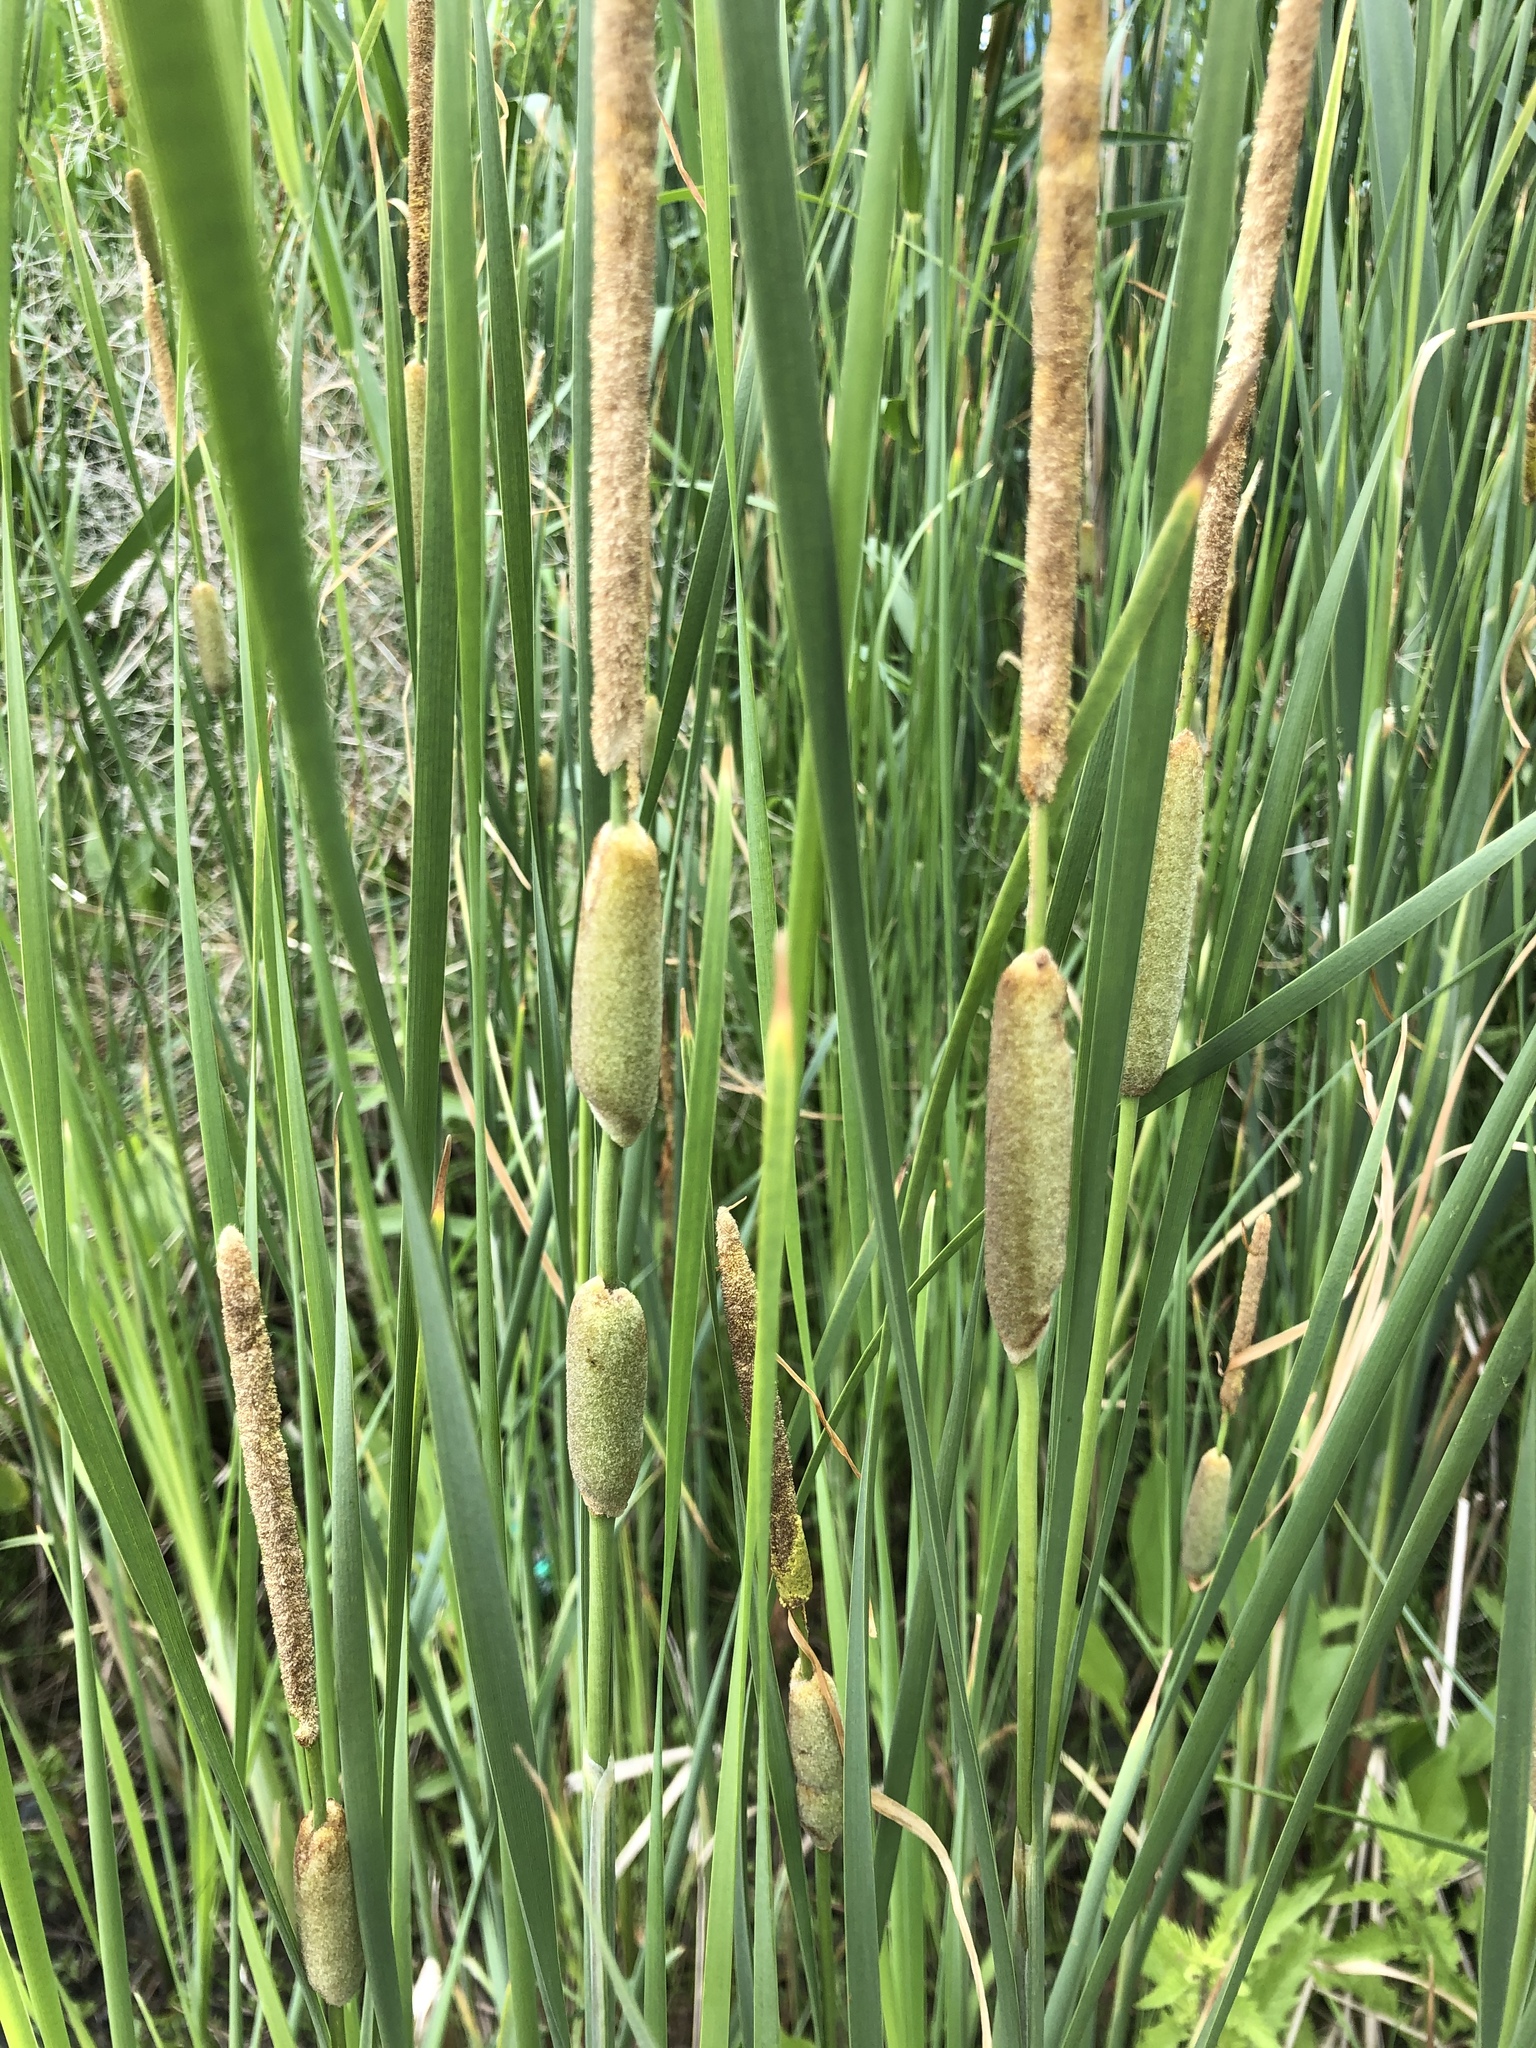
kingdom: Plantae
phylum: Tracheophyta
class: Liliopsida
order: Poales
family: Typhaceae
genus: Typha
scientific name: Typha laxmannii
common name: Laxman’s bulrush
